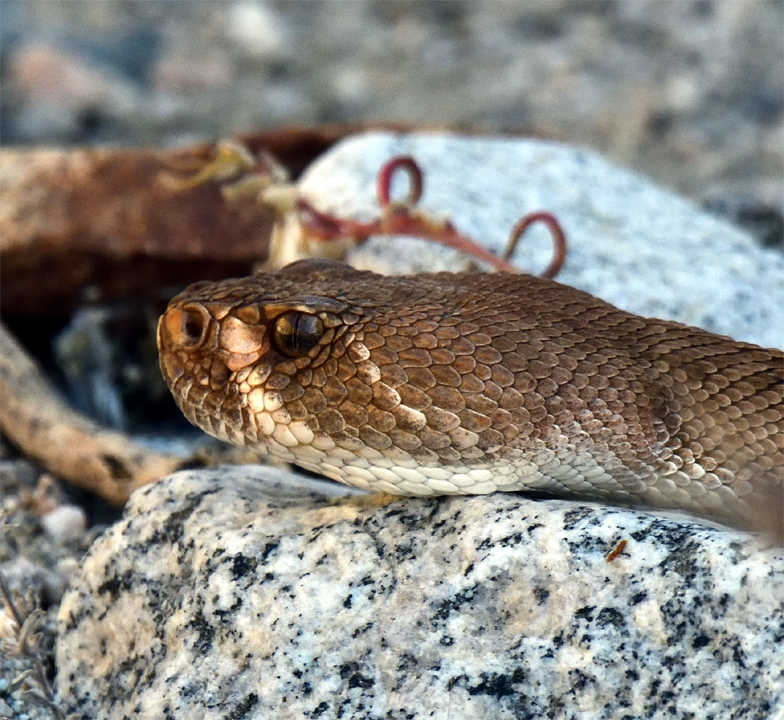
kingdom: Animalia
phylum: Chordata
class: Squamata
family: Viperidae
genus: Crotalus
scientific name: Crotalus ruber
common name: Red diamond rattlesnake
